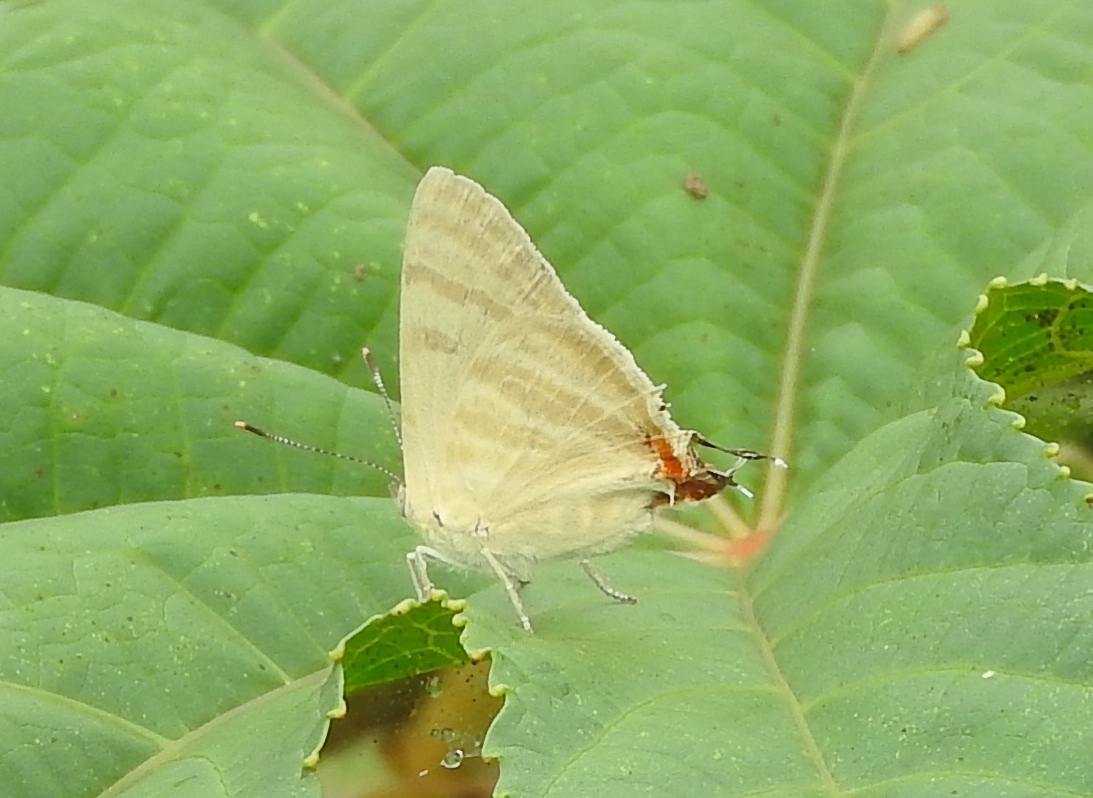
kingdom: Animalia
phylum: Arthropoda
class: Insecta
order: Lepidoptera
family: Lycaenidae
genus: Dolymorpha
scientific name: Dolymorpha jada
